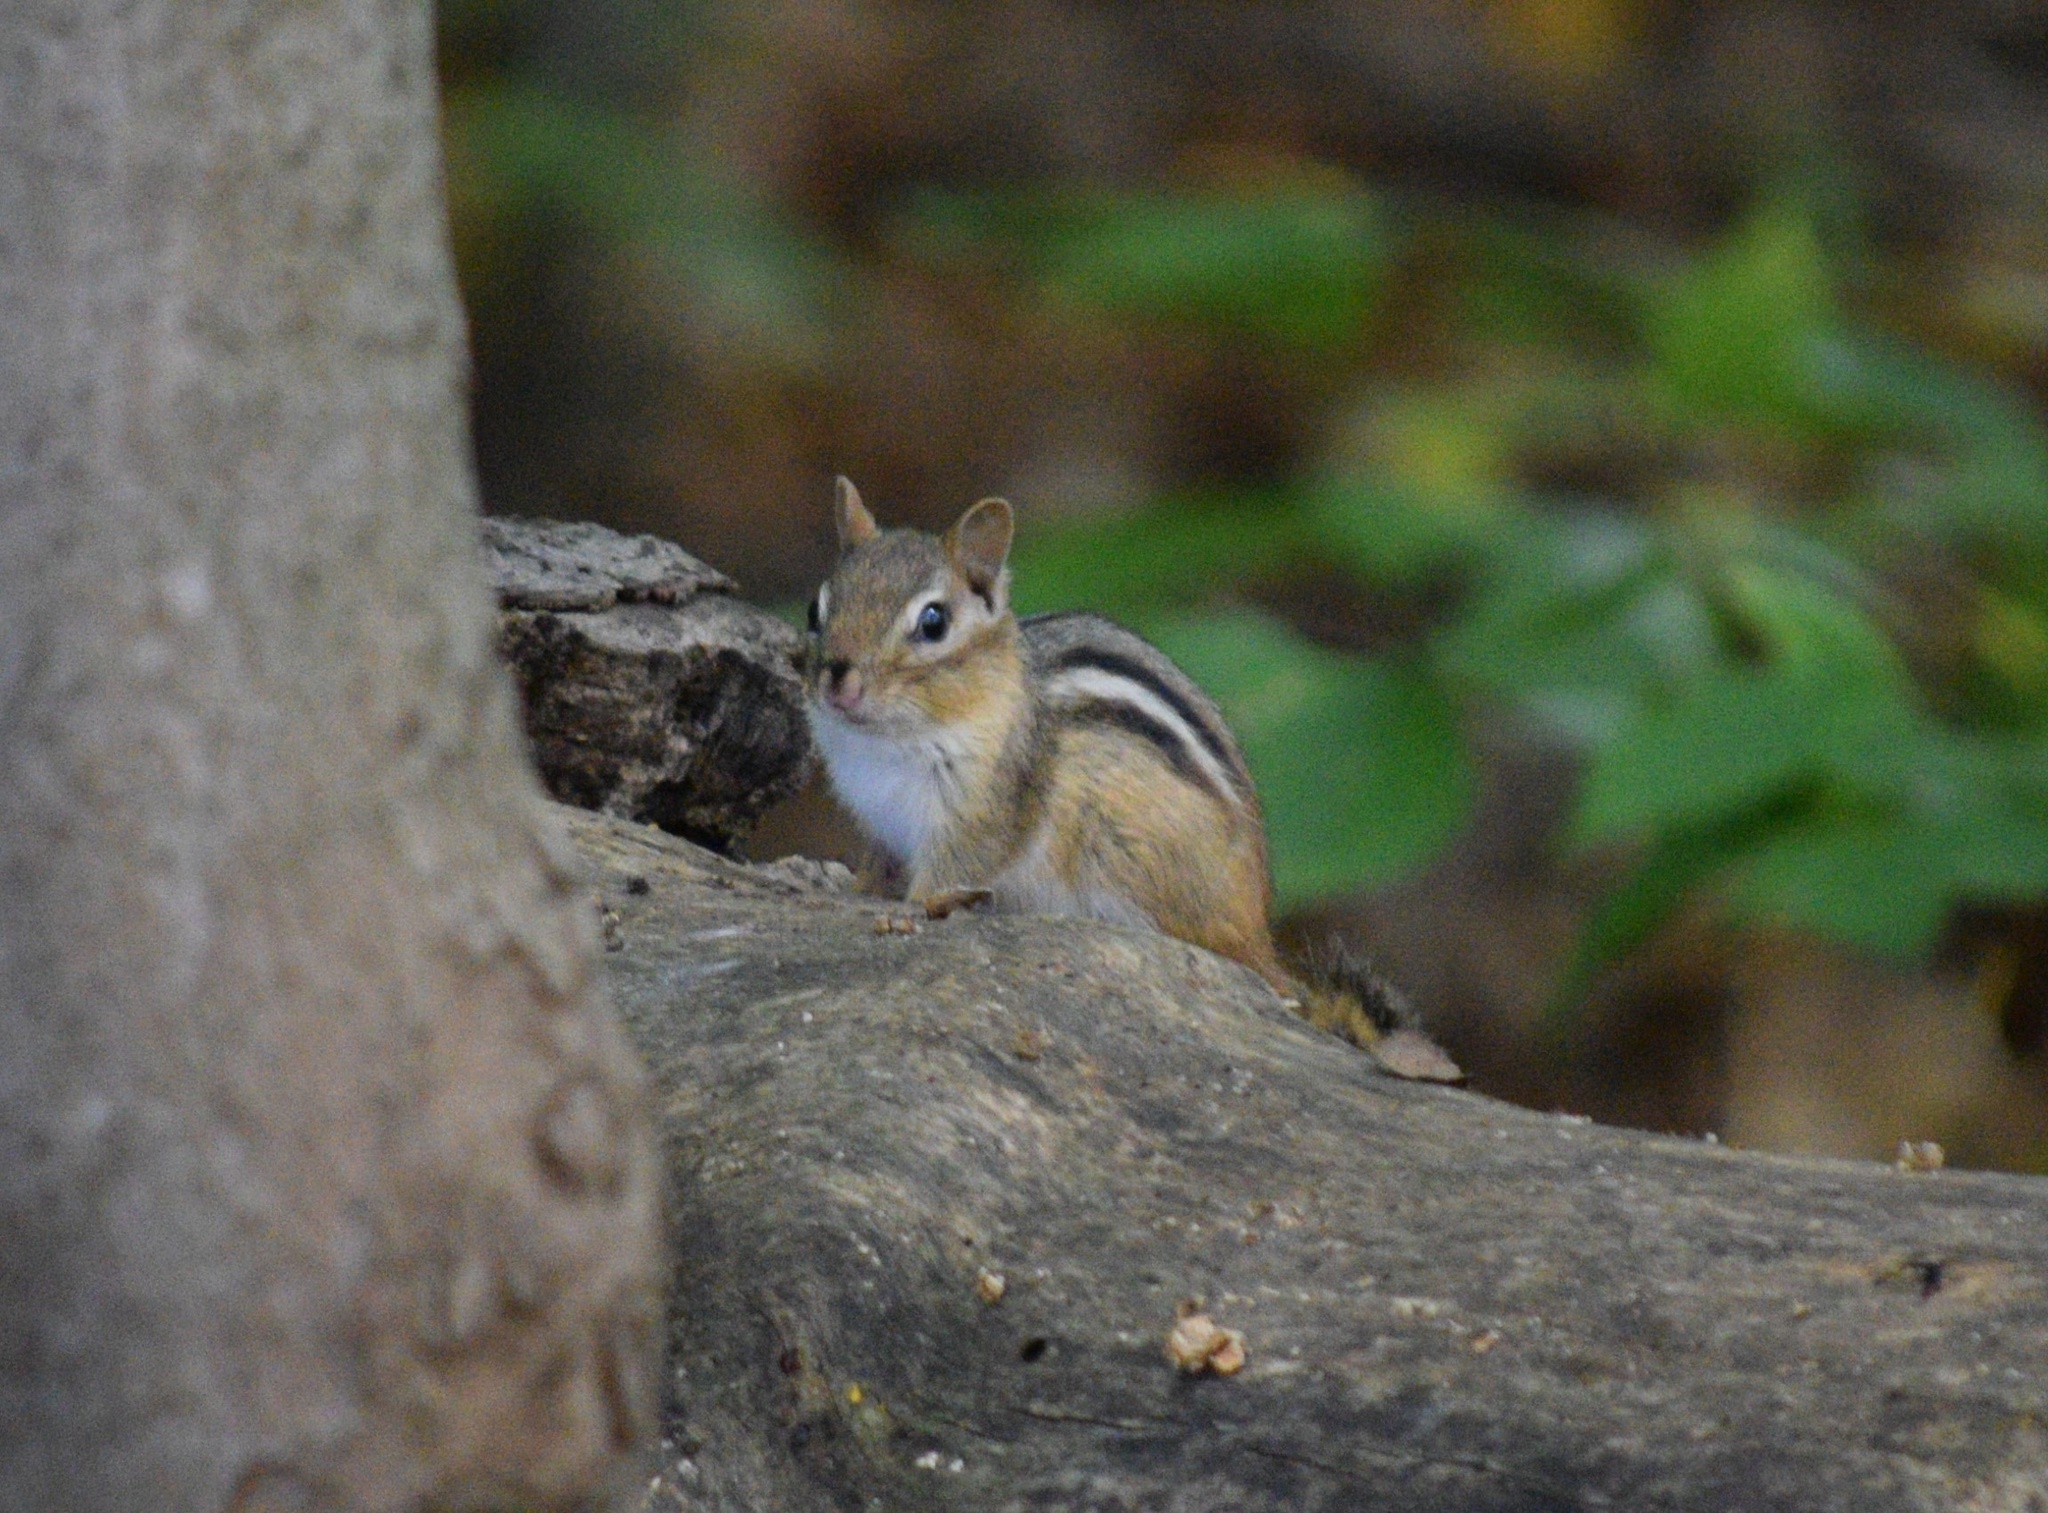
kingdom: Animalia
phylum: Chordata
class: Mammalia
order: Rodentia
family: Sciuridae
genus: Tamias
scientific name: Tamias striatus
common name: Eastern chipmunk
